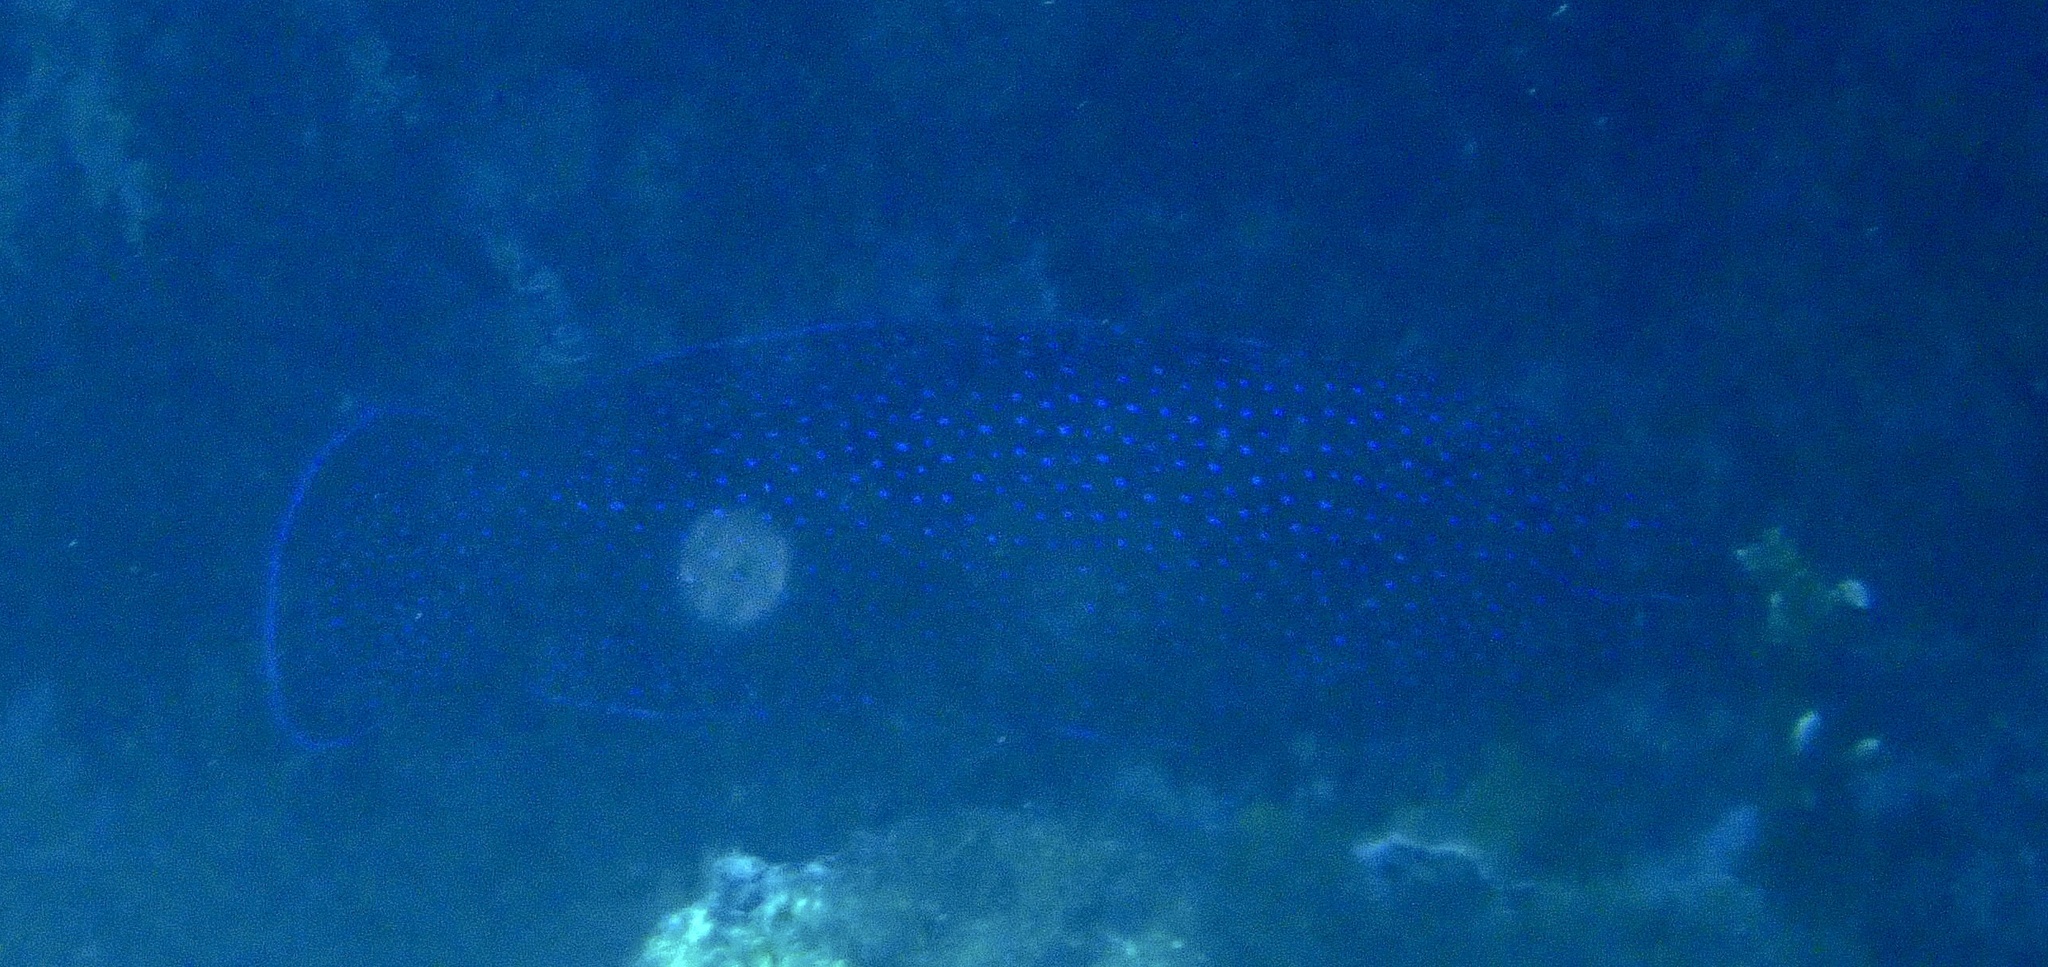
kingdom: Animalia
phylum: Chordata
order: Perciformes
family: Serranidae
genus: Cephalopholis
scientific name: Cephalopholis taeniops
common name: African hind
